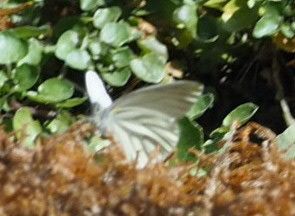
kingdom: Animalia
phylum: Arthropoda
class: Insecta
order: Lepidoptera
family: Pieridae
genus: Pieris
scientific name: Pieris marginalis
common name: Margined white
